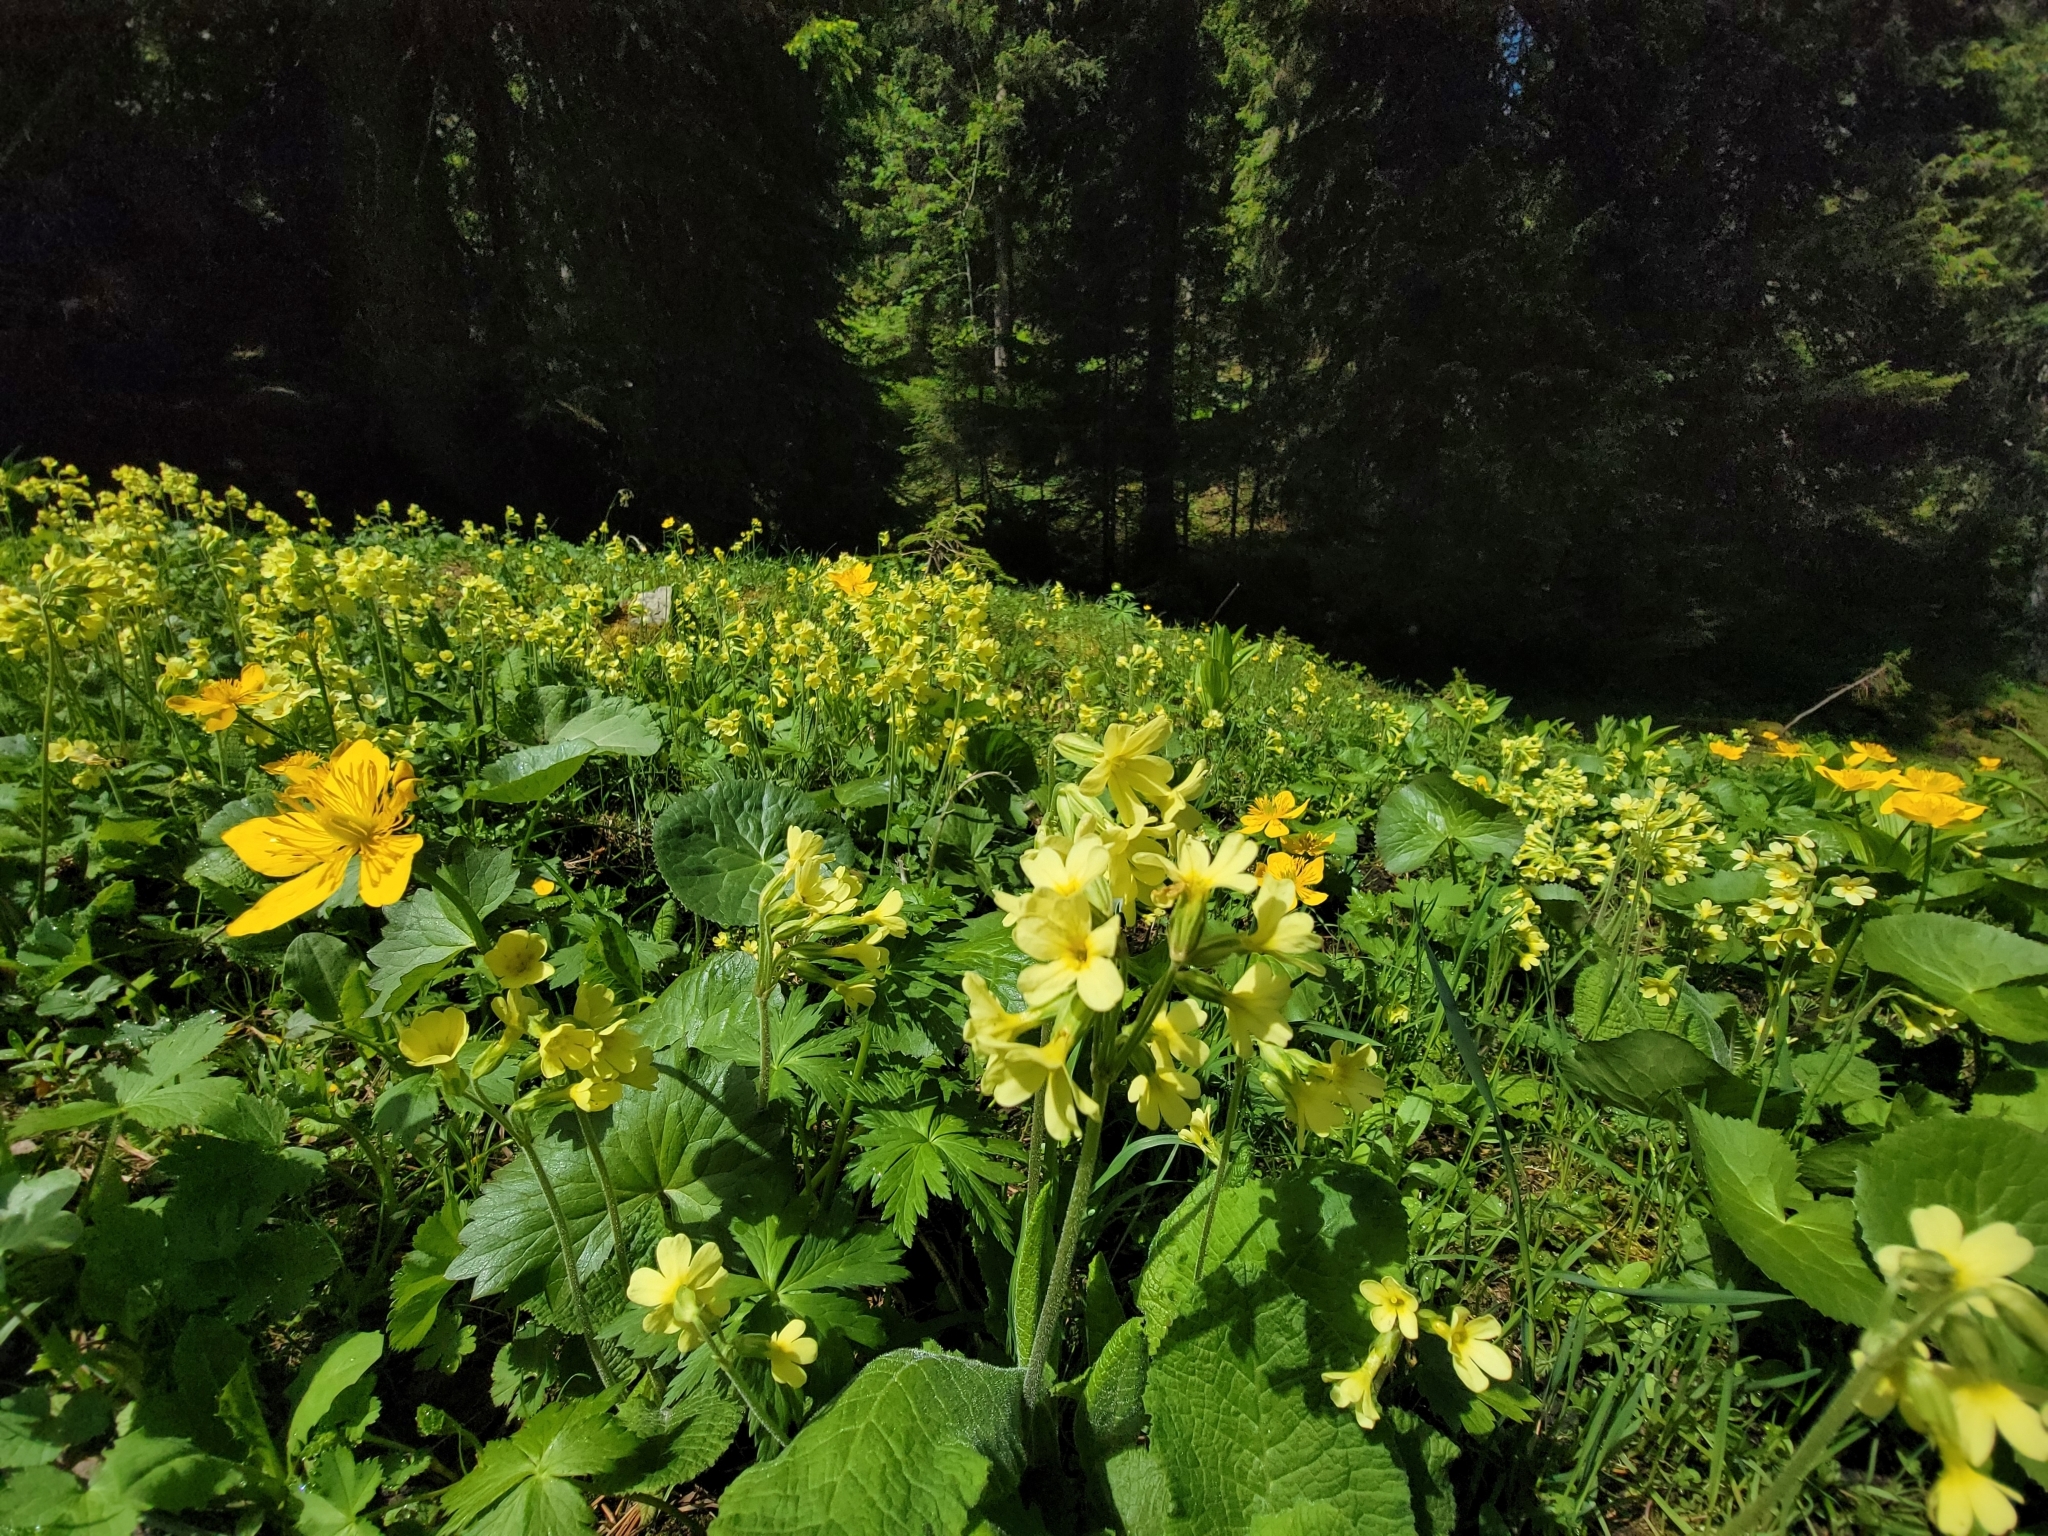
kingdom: Plantae
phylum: Tracheophyta
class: Magnoliopsida
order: Ericales
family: Primulaceae
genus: Primula
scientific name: Primula elatior
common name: Oxlip
